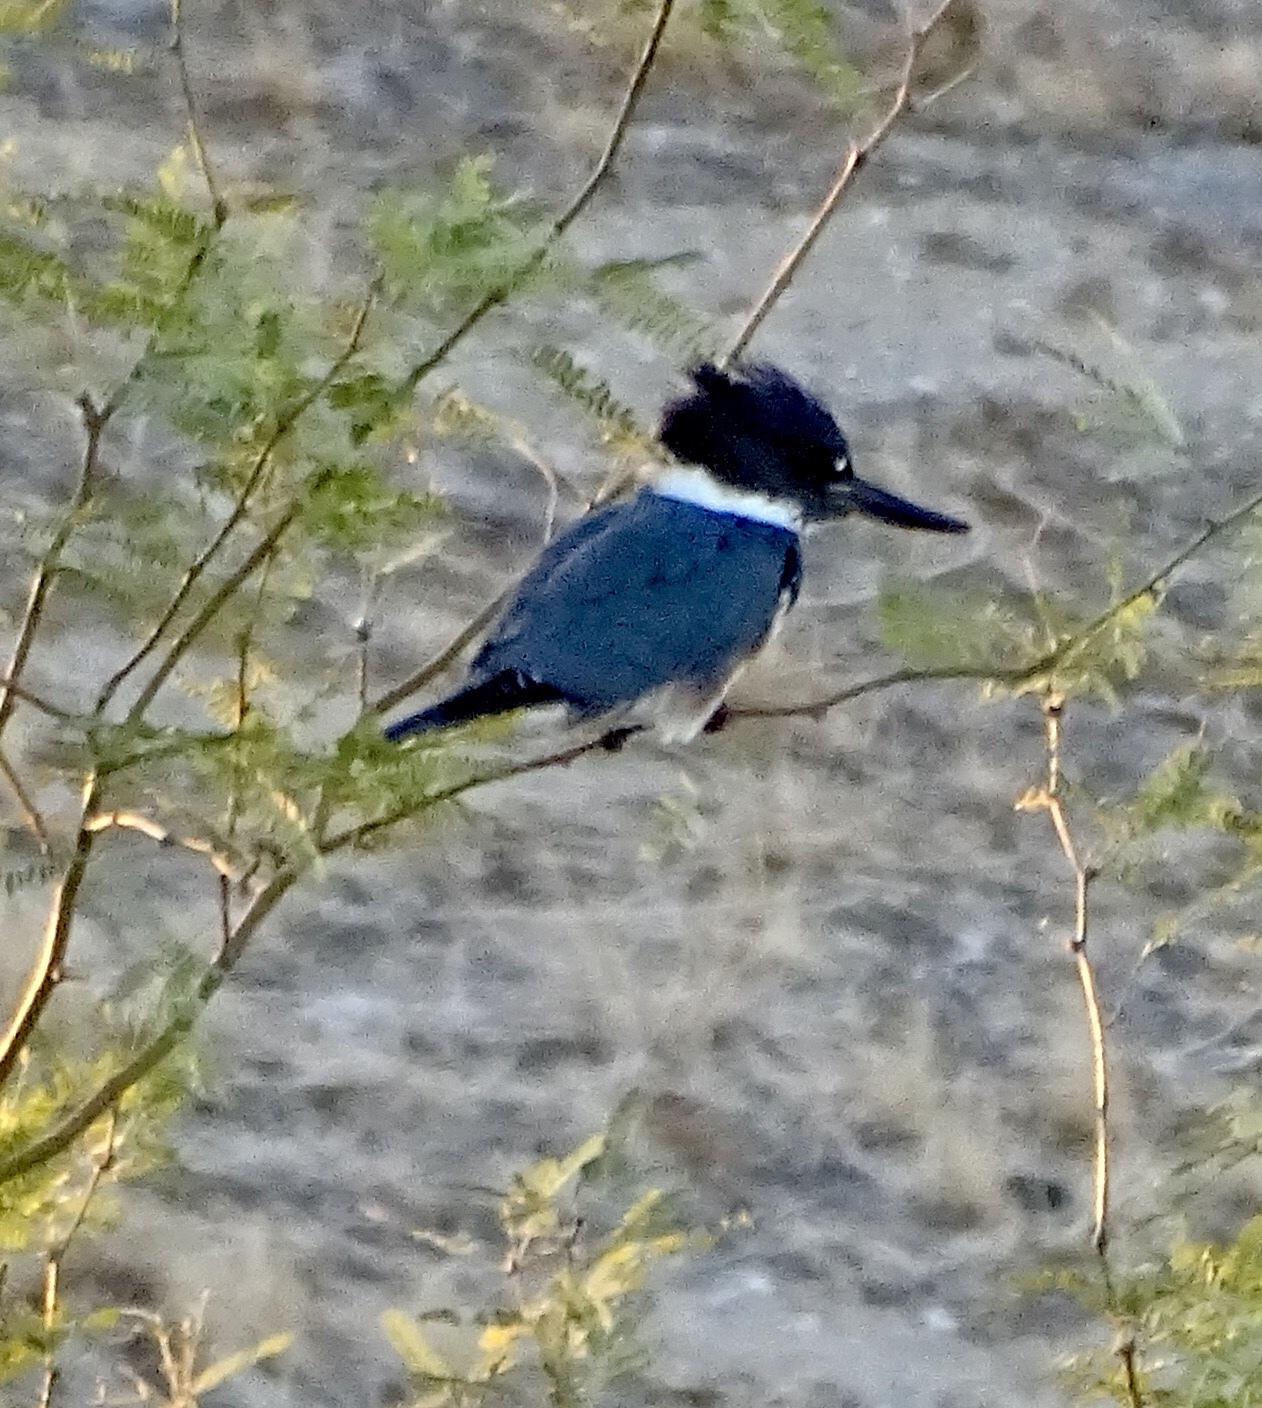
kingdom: Animalia
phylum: Chordata
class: Aves
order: Coraciiformes
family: Alcedinidae
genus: Megaceryle
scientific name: Megaceryle alcyon
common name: Belted kingfisher
